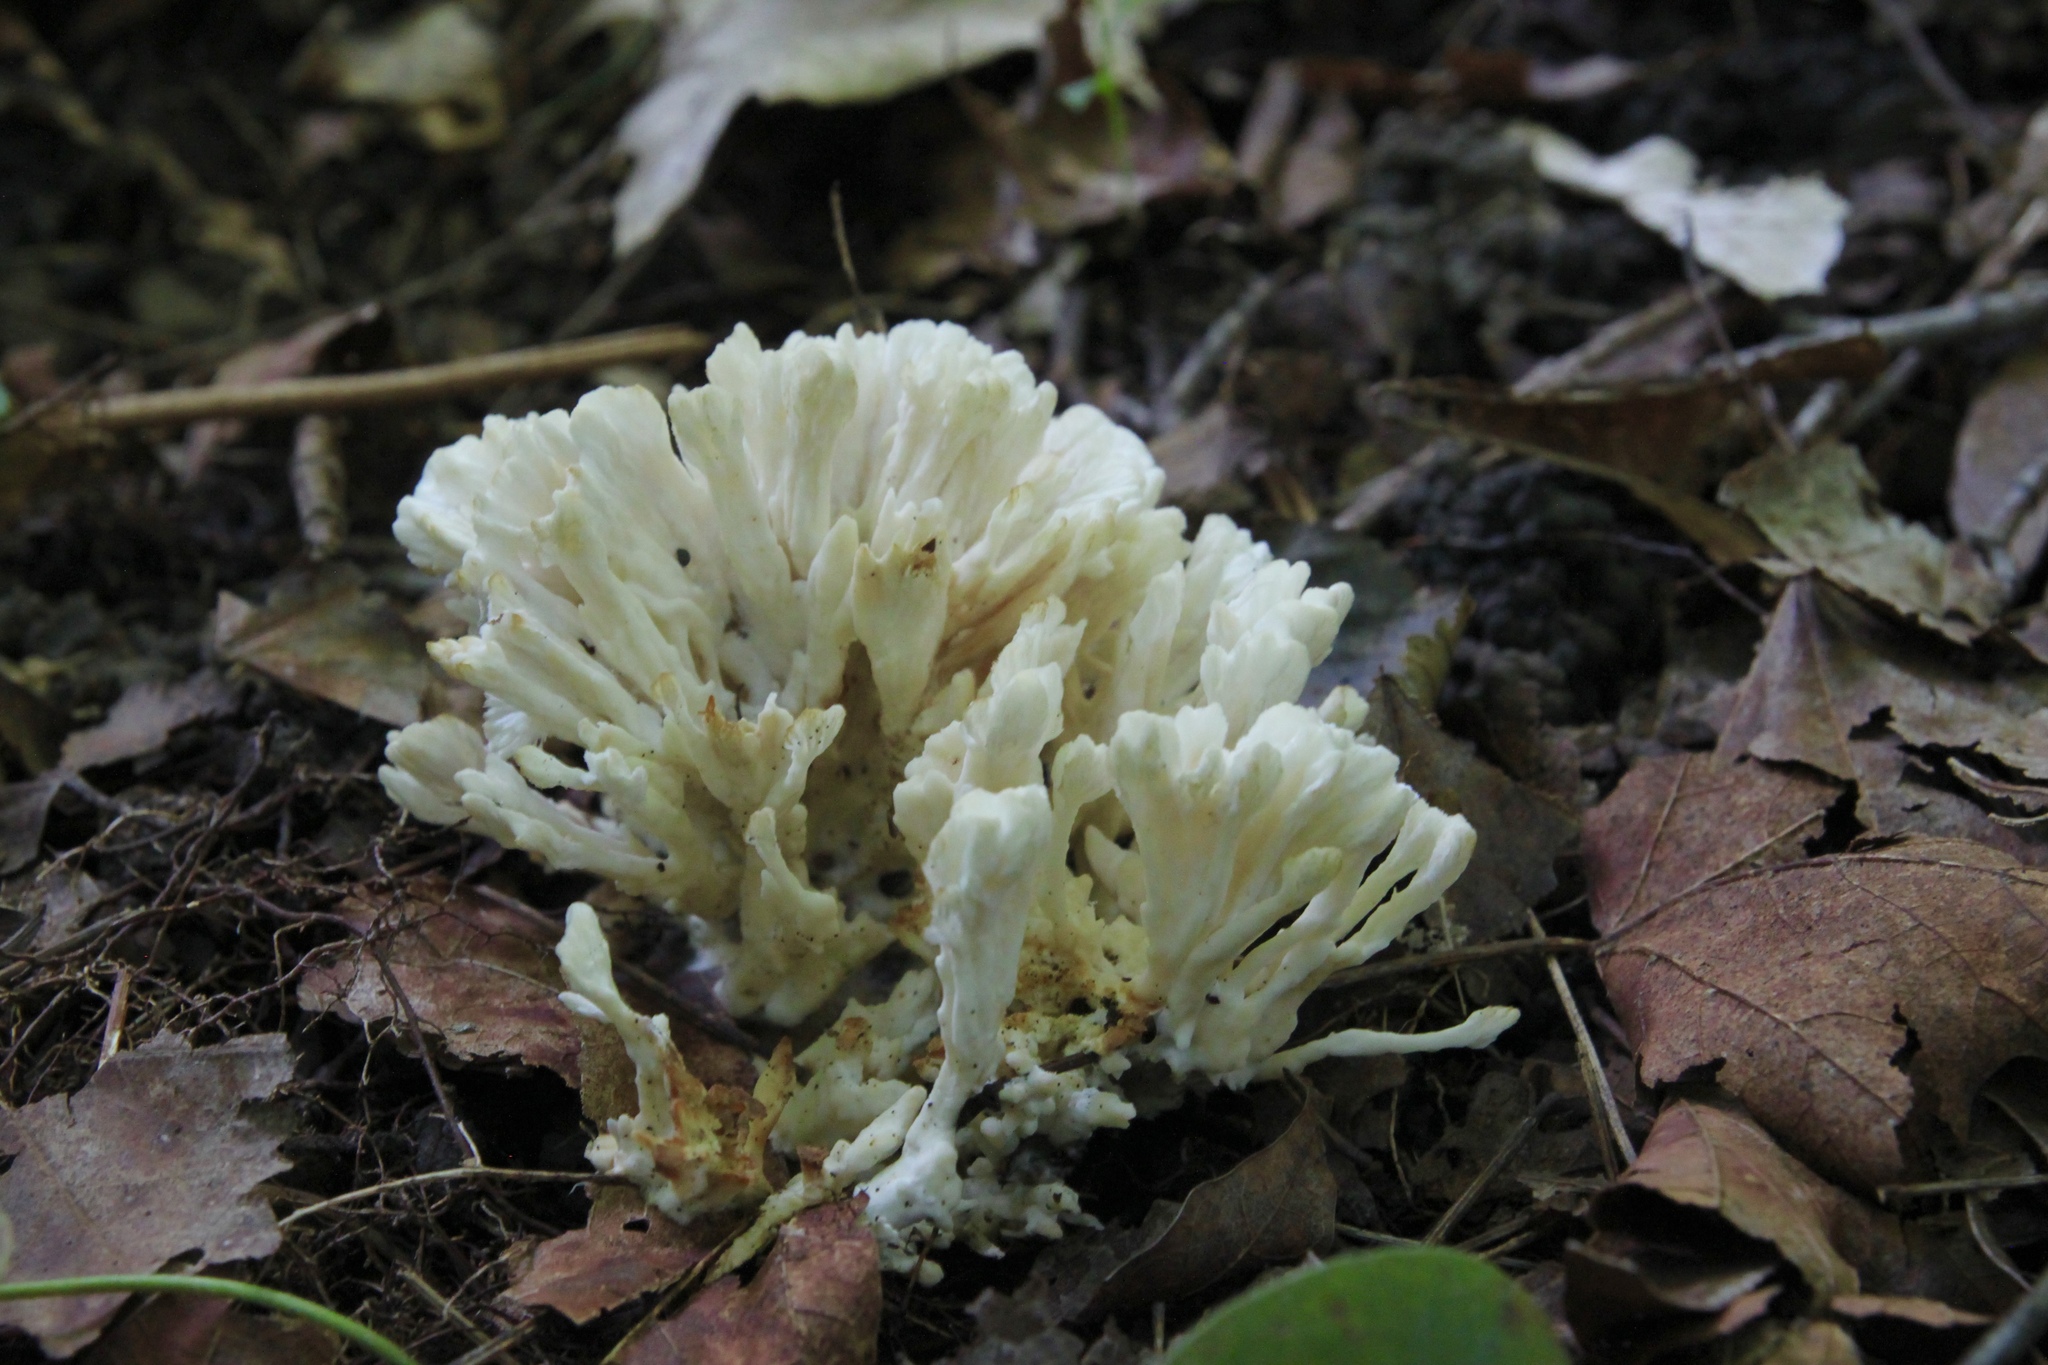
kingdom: Fungi
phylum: Basidiomycota
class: Agaricomycetes
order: Sebacinales
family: Sebacinaceae
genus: Sebacina
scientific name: Sebacina schweinitzii
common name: Jellied false coral fungus
